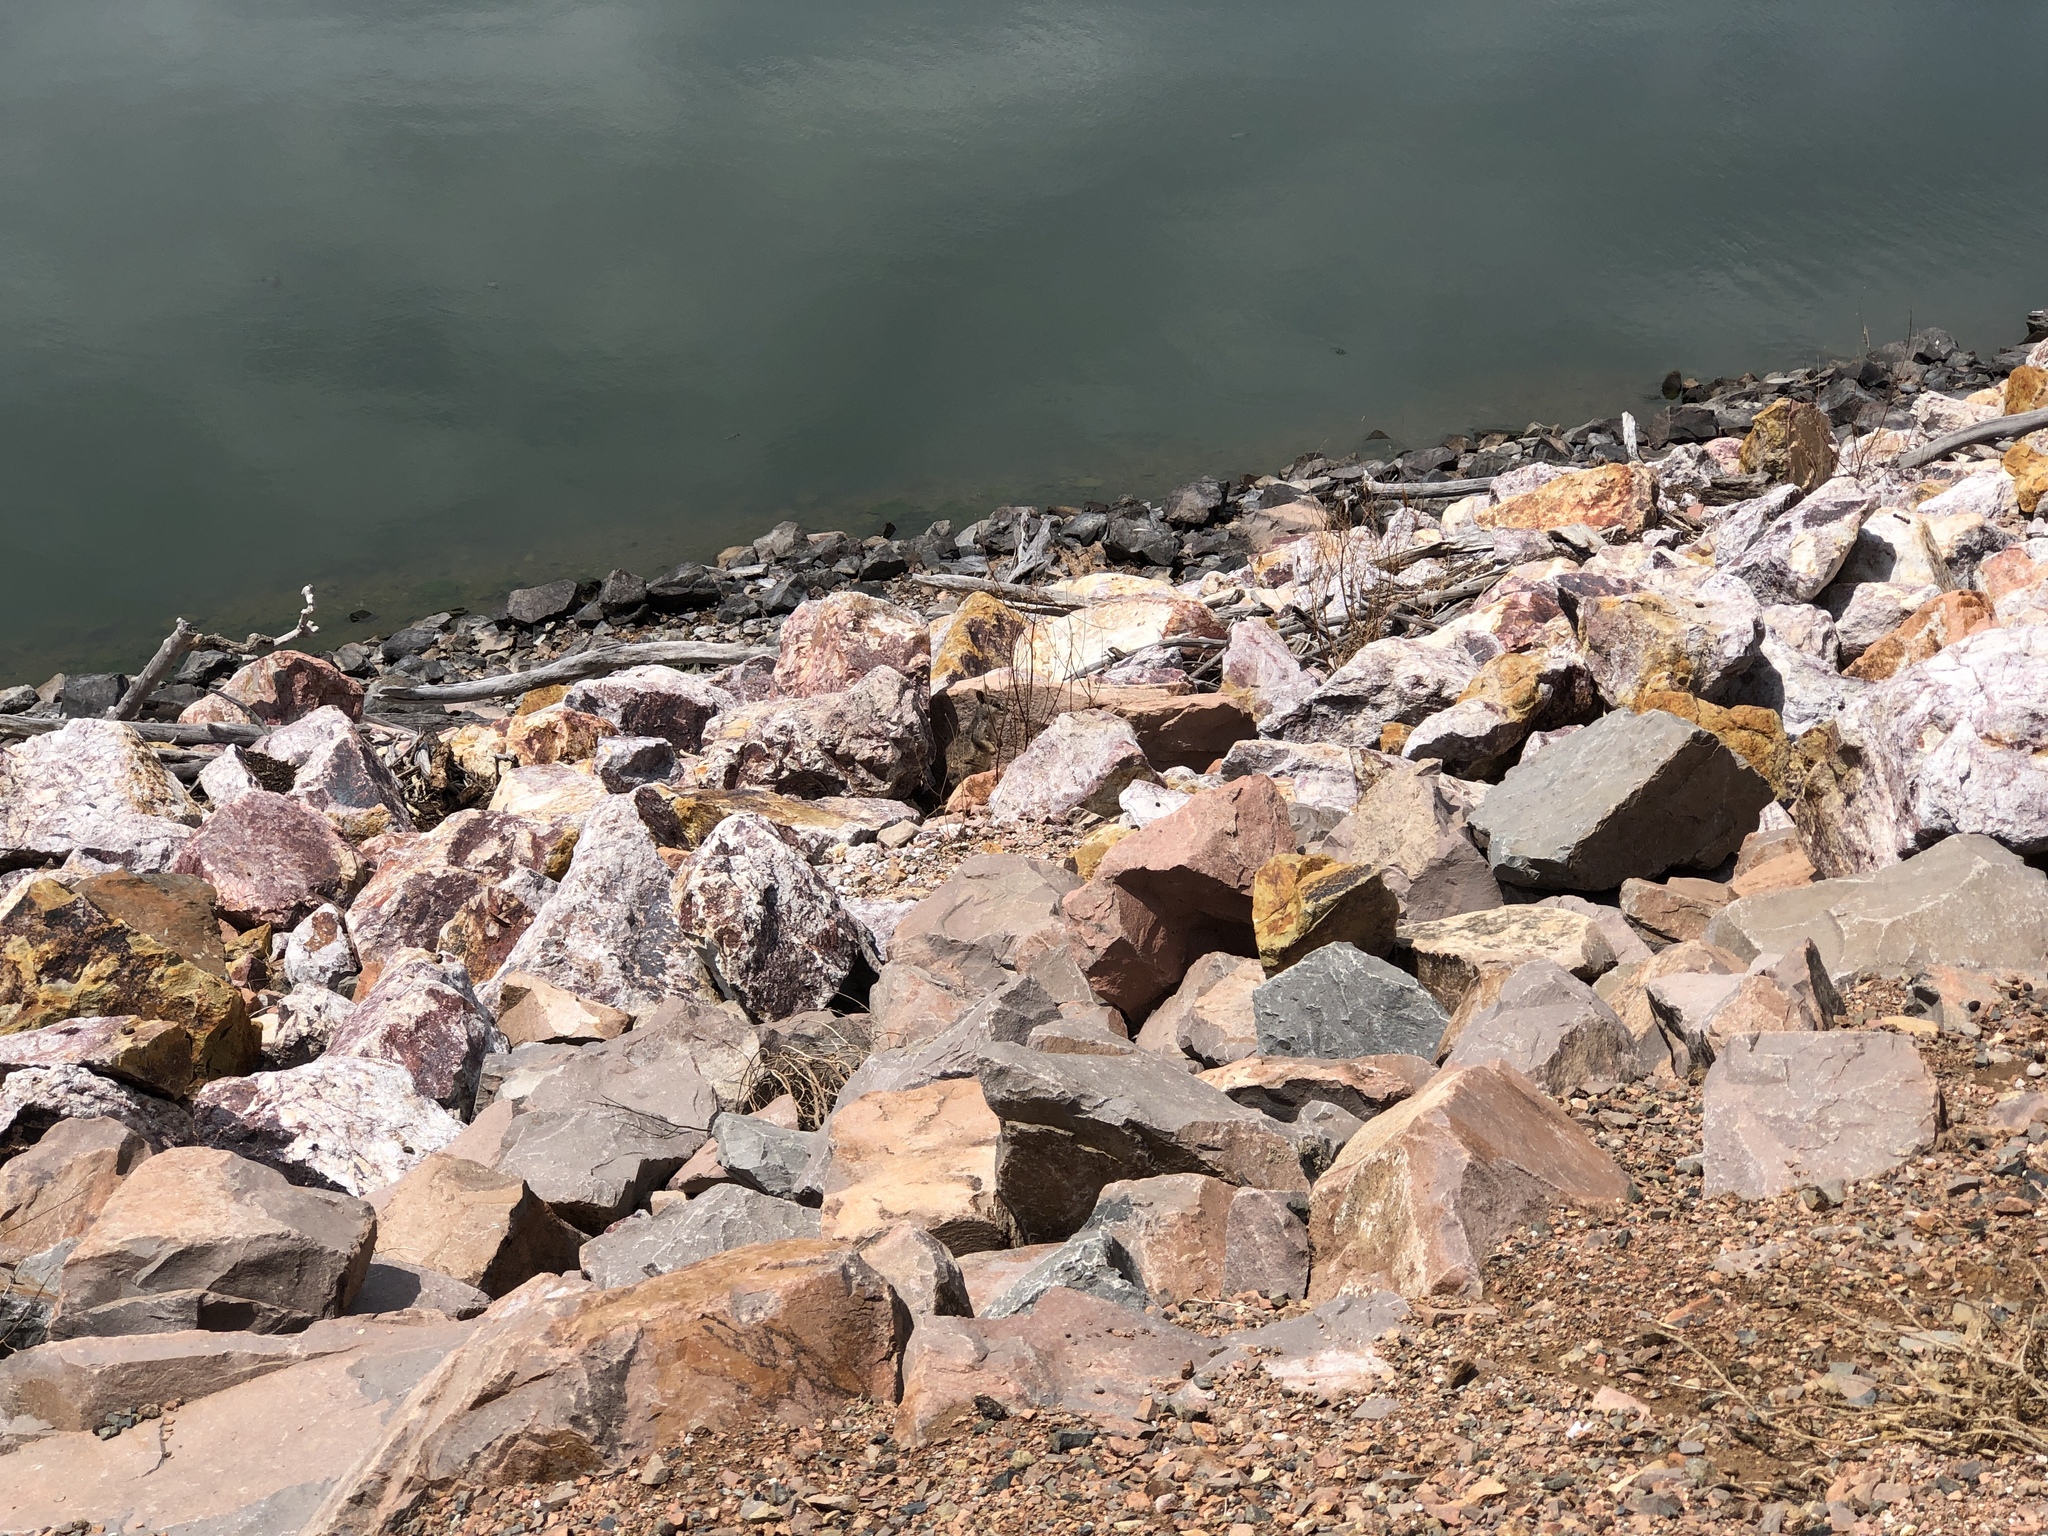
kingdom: Animalia
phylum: Chordata
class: Mammalia
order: Diprotodontia
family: Macropodidae
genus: Petrogale
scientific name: Petrogale assimilis
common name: Allied rock wallaby
